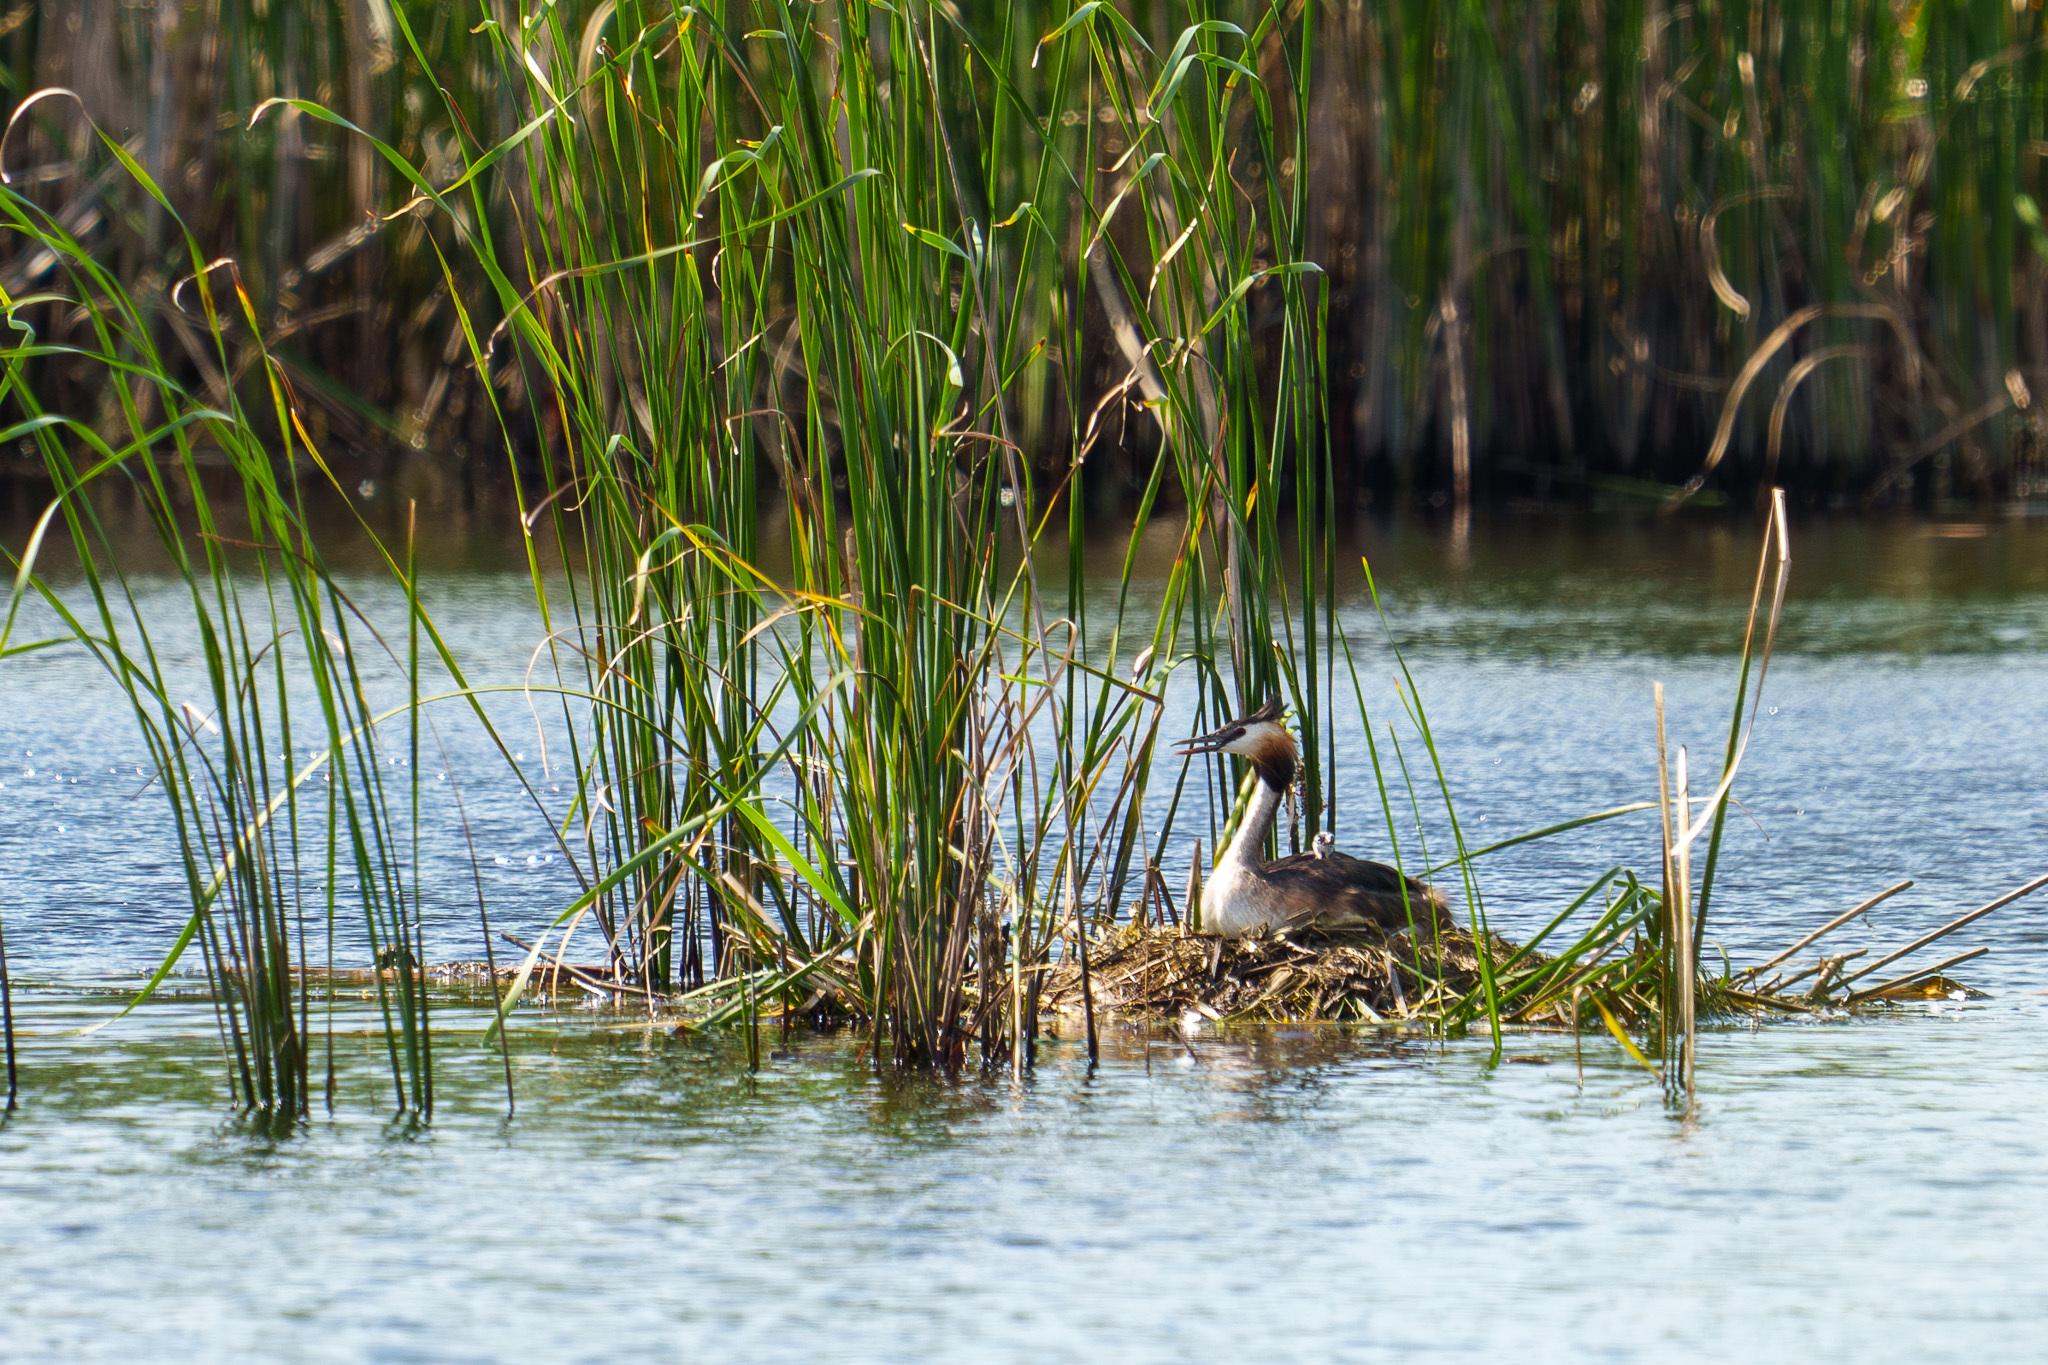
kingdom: Animalia
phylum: Chordata
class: Aves
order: Podicipediformes
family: Podicipedidae
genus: Podiceps
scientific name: Podiceps cristatus
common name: Great crested grebe
